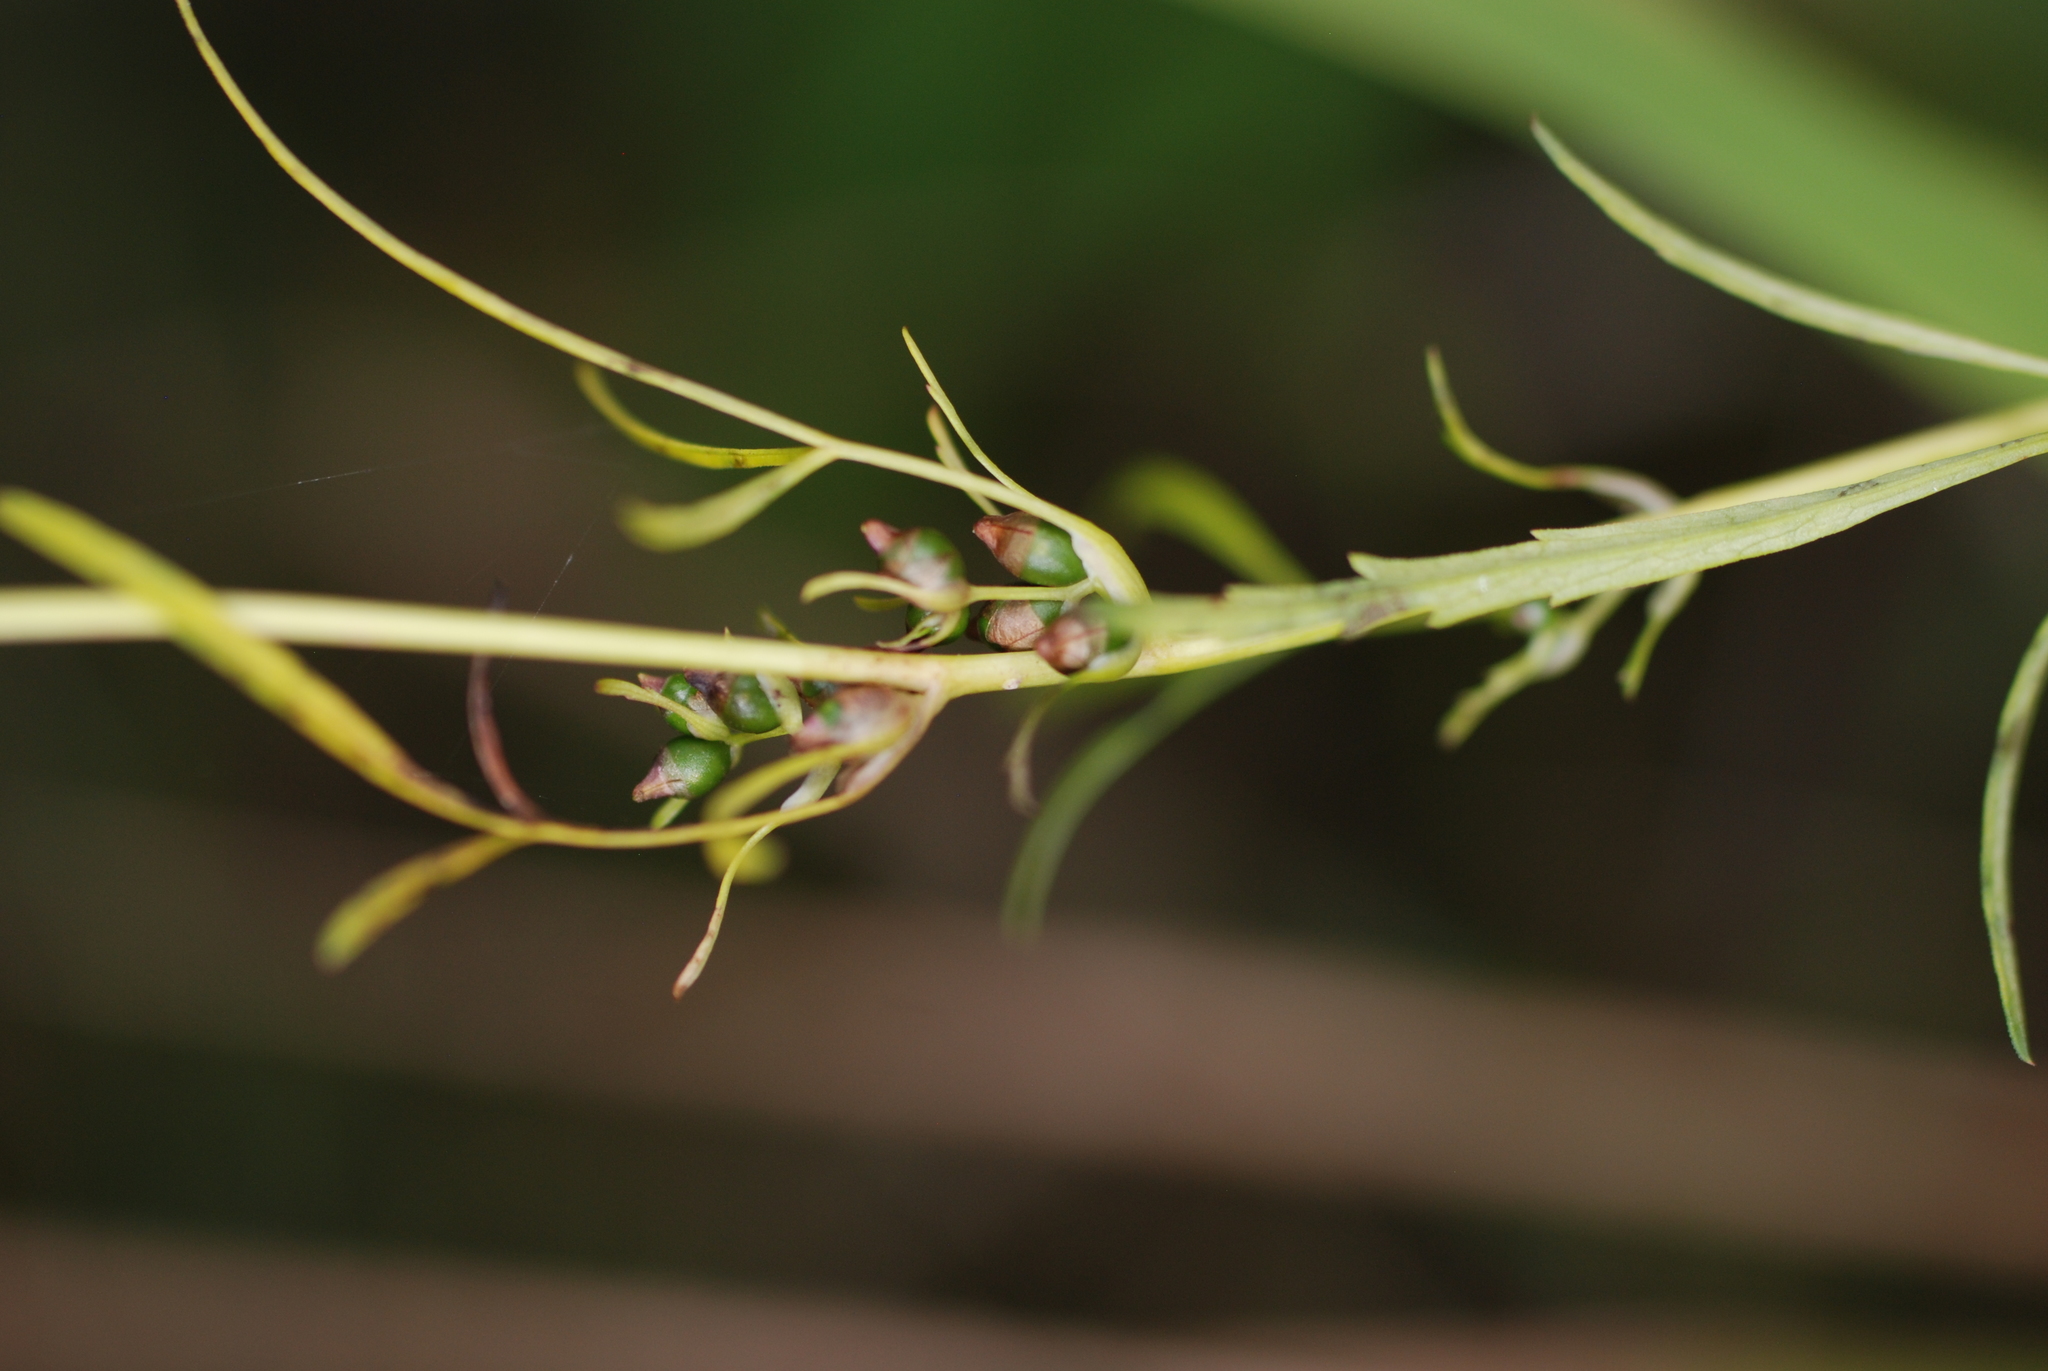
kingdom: Plantae
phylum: Tracheophyta
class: Magnoliopsida
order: Apiales
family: Apiaceae
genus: Cicuta
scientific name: Cicuta bulbifera
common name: Bulb-bearing water-hemlock
